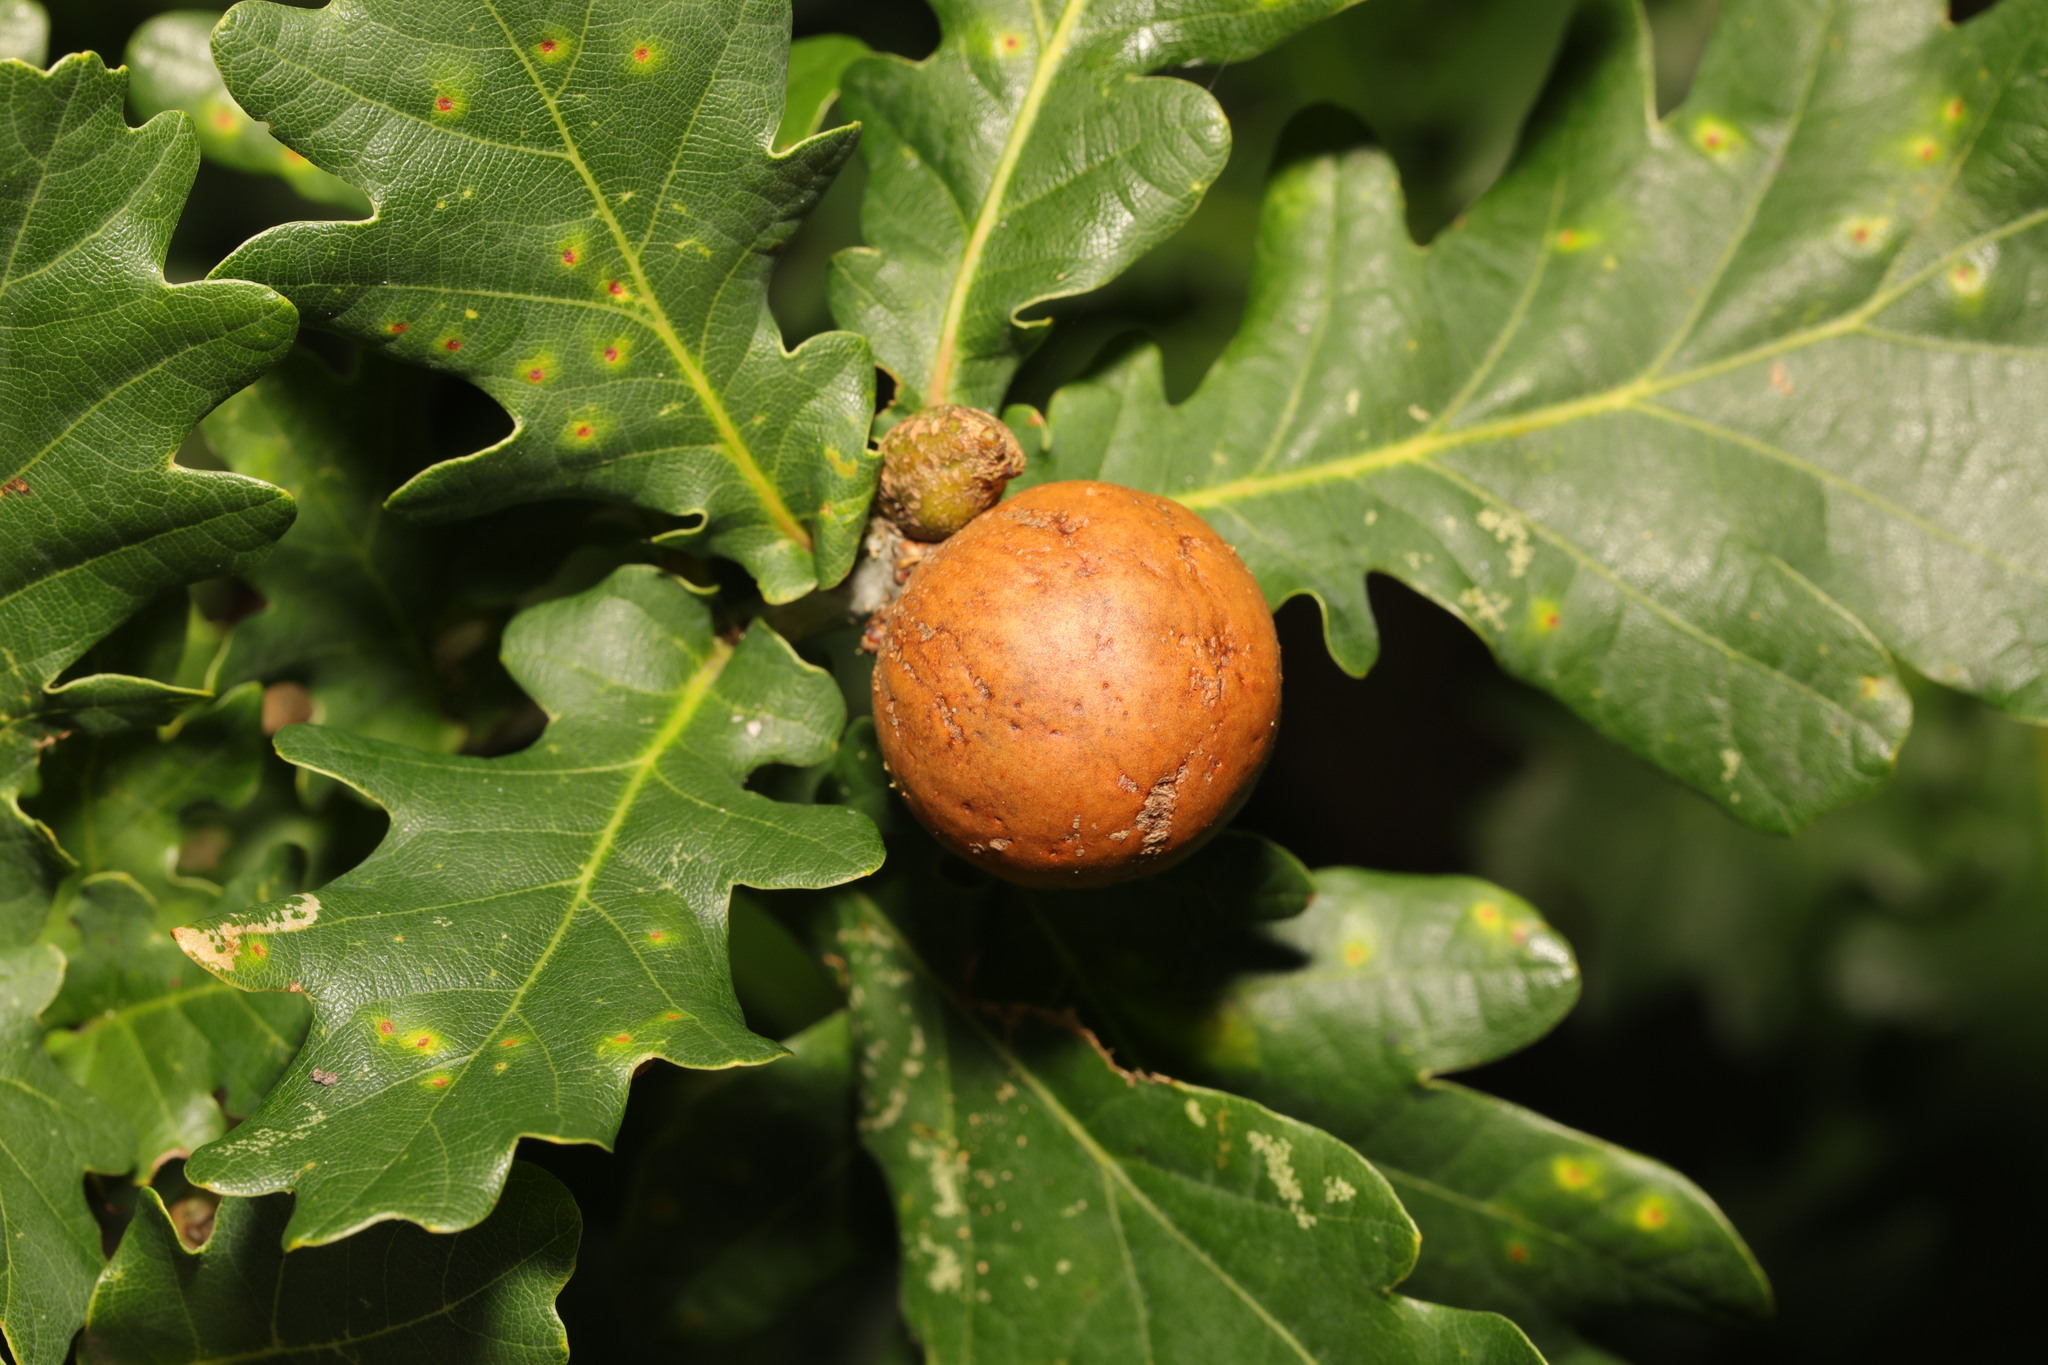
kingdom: Animalia
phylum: Arthropoda
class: Insecta
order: Hymenoptera
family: Cynipidae
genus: Andricus
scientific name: Andricus kollari
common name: Marble gall
